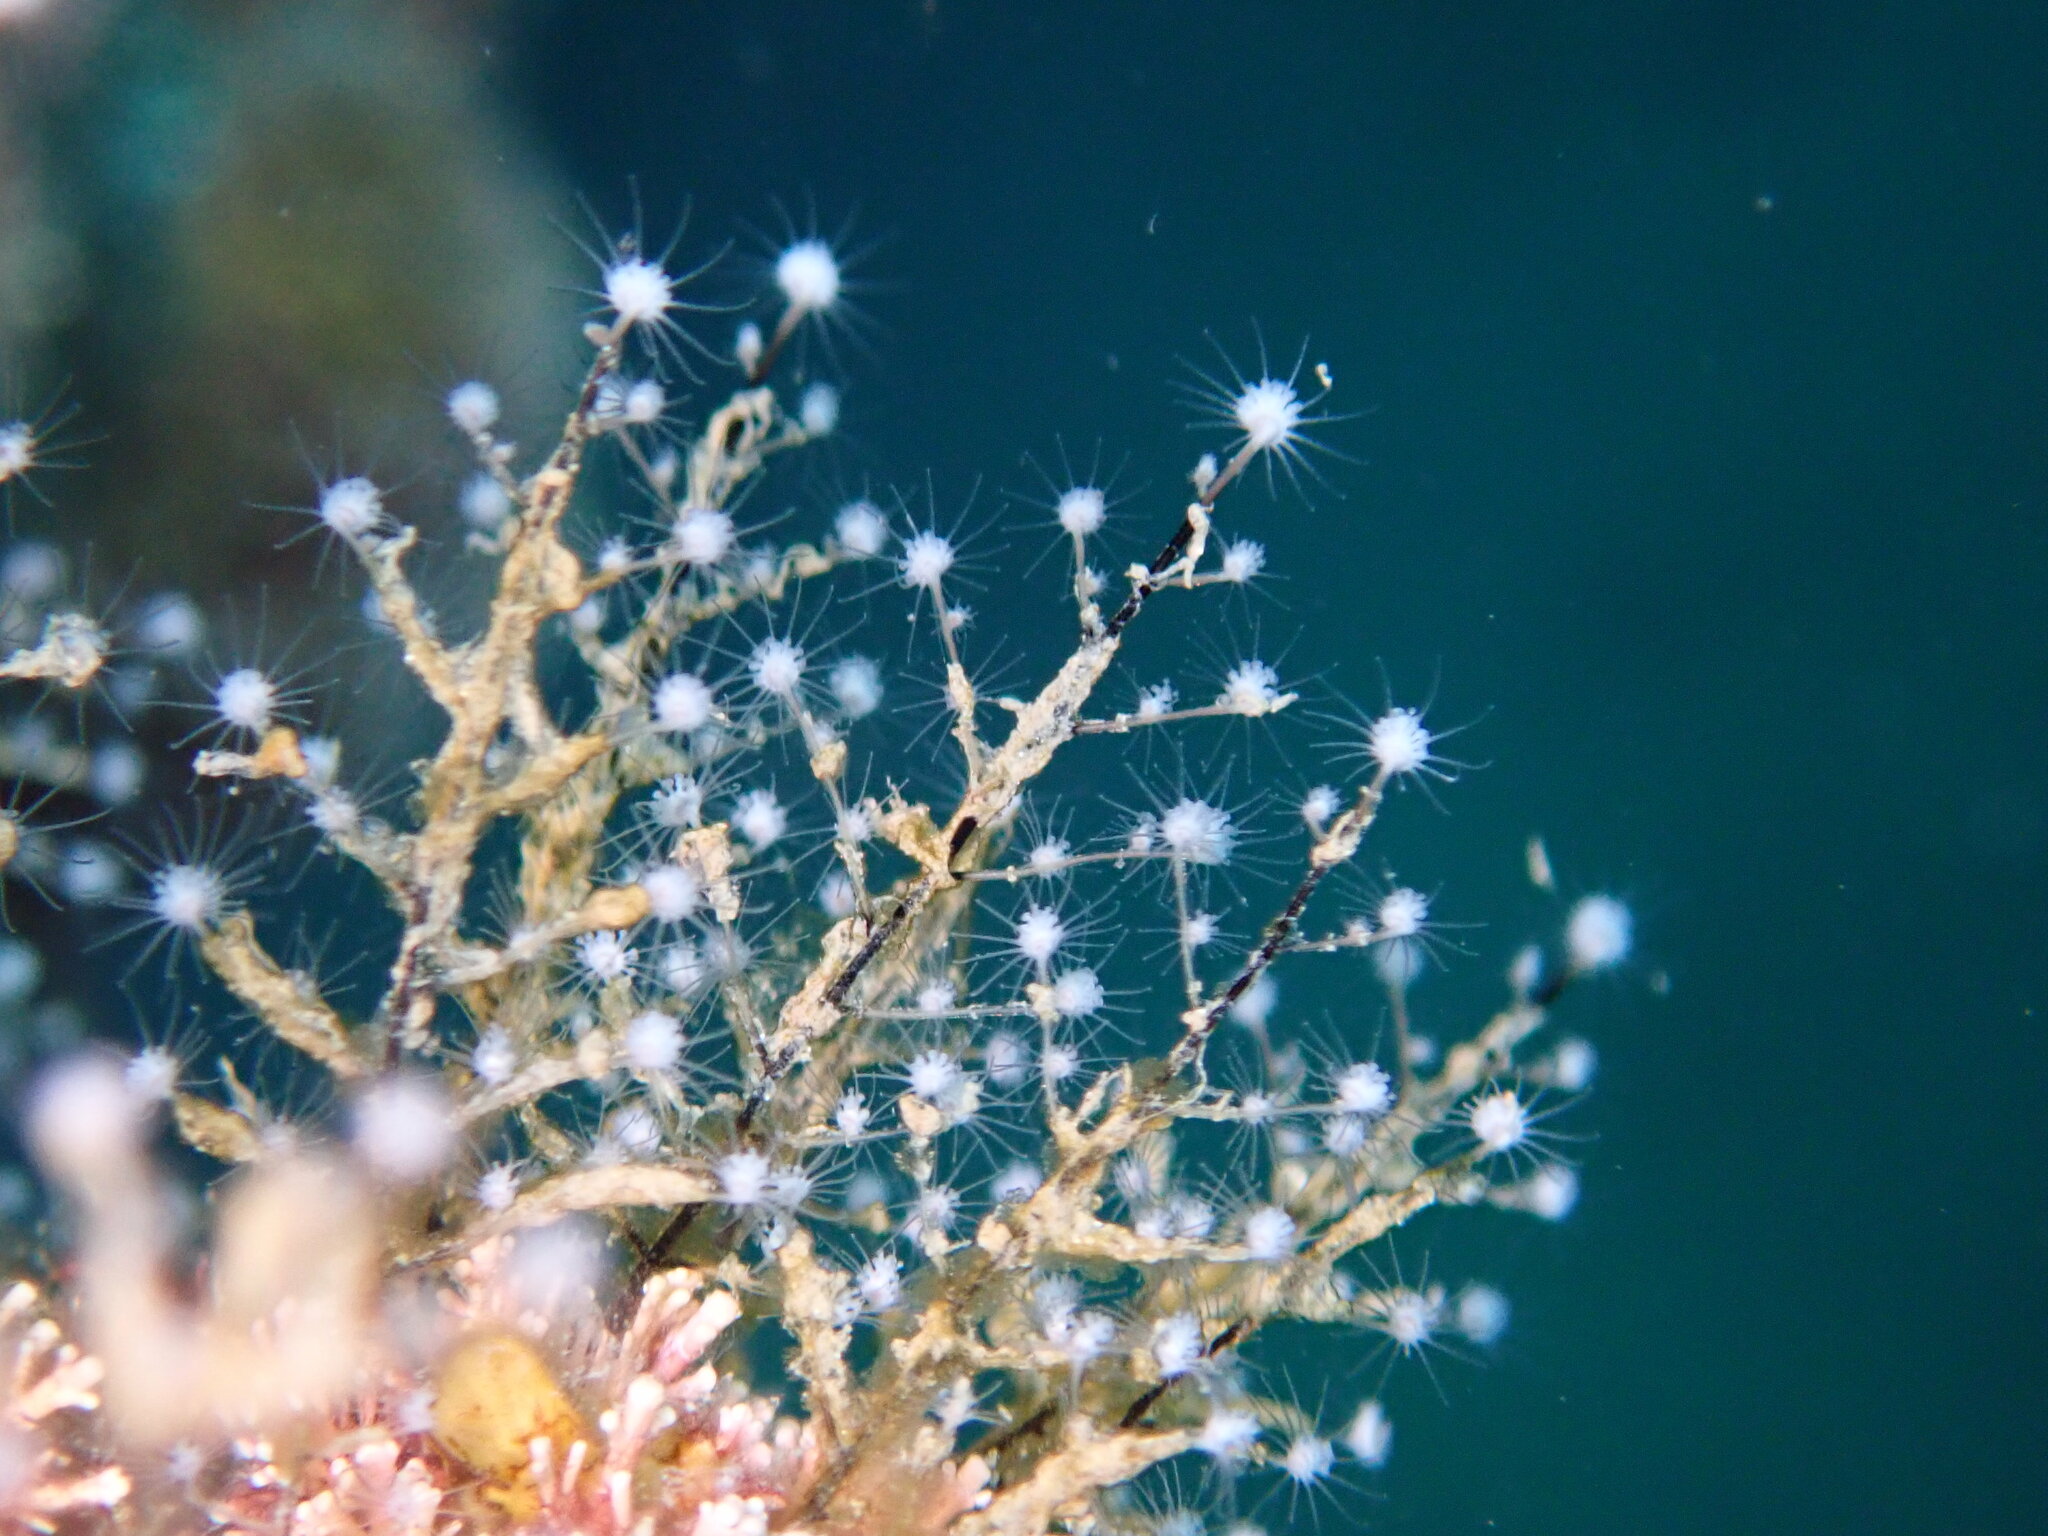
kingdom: Animalia
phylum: Cnidaria
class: Hydrozoa
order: Anthoathecata
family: Pennariidae
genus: Pennaria
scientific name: Pennaria disticha
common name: Feather hydroid
